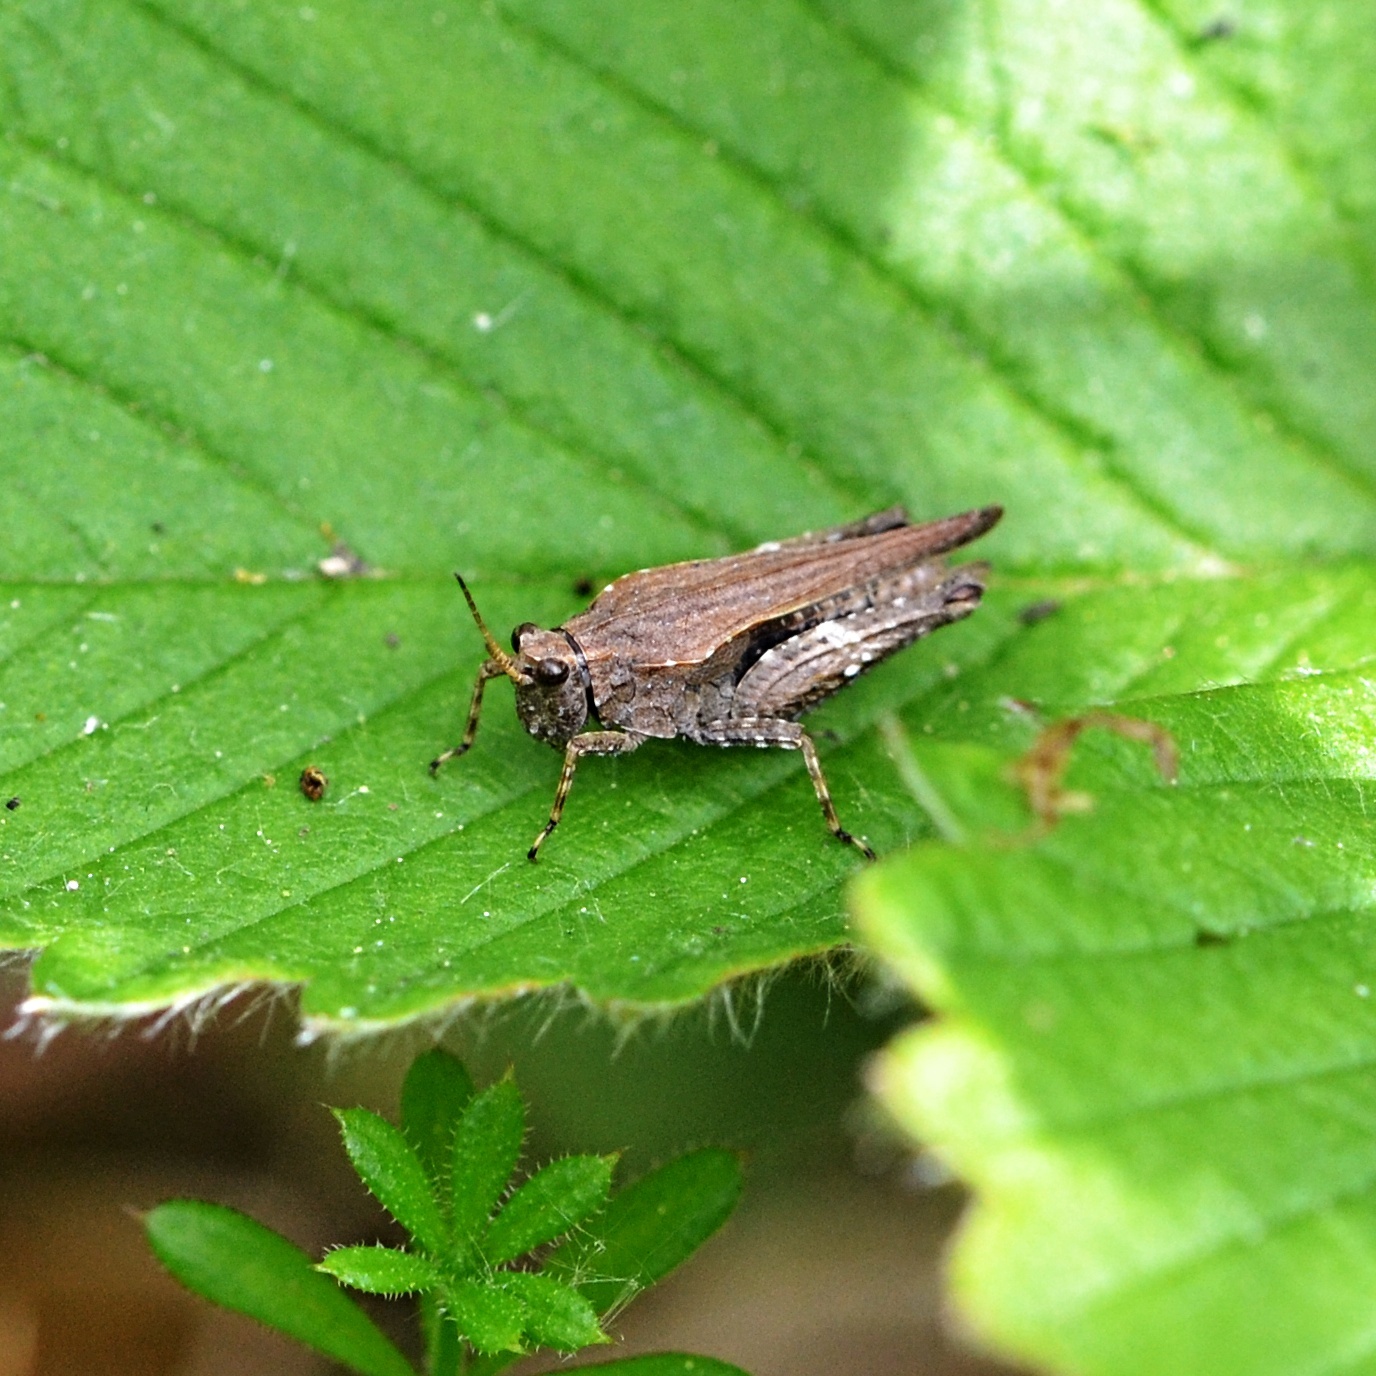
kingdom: Animalia
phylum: Arthropoda
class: Insecta
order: Orthoptera
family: Tetrigidae
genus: Tetrix
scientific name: Tetrix subulata
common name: Slender ground-hopper
